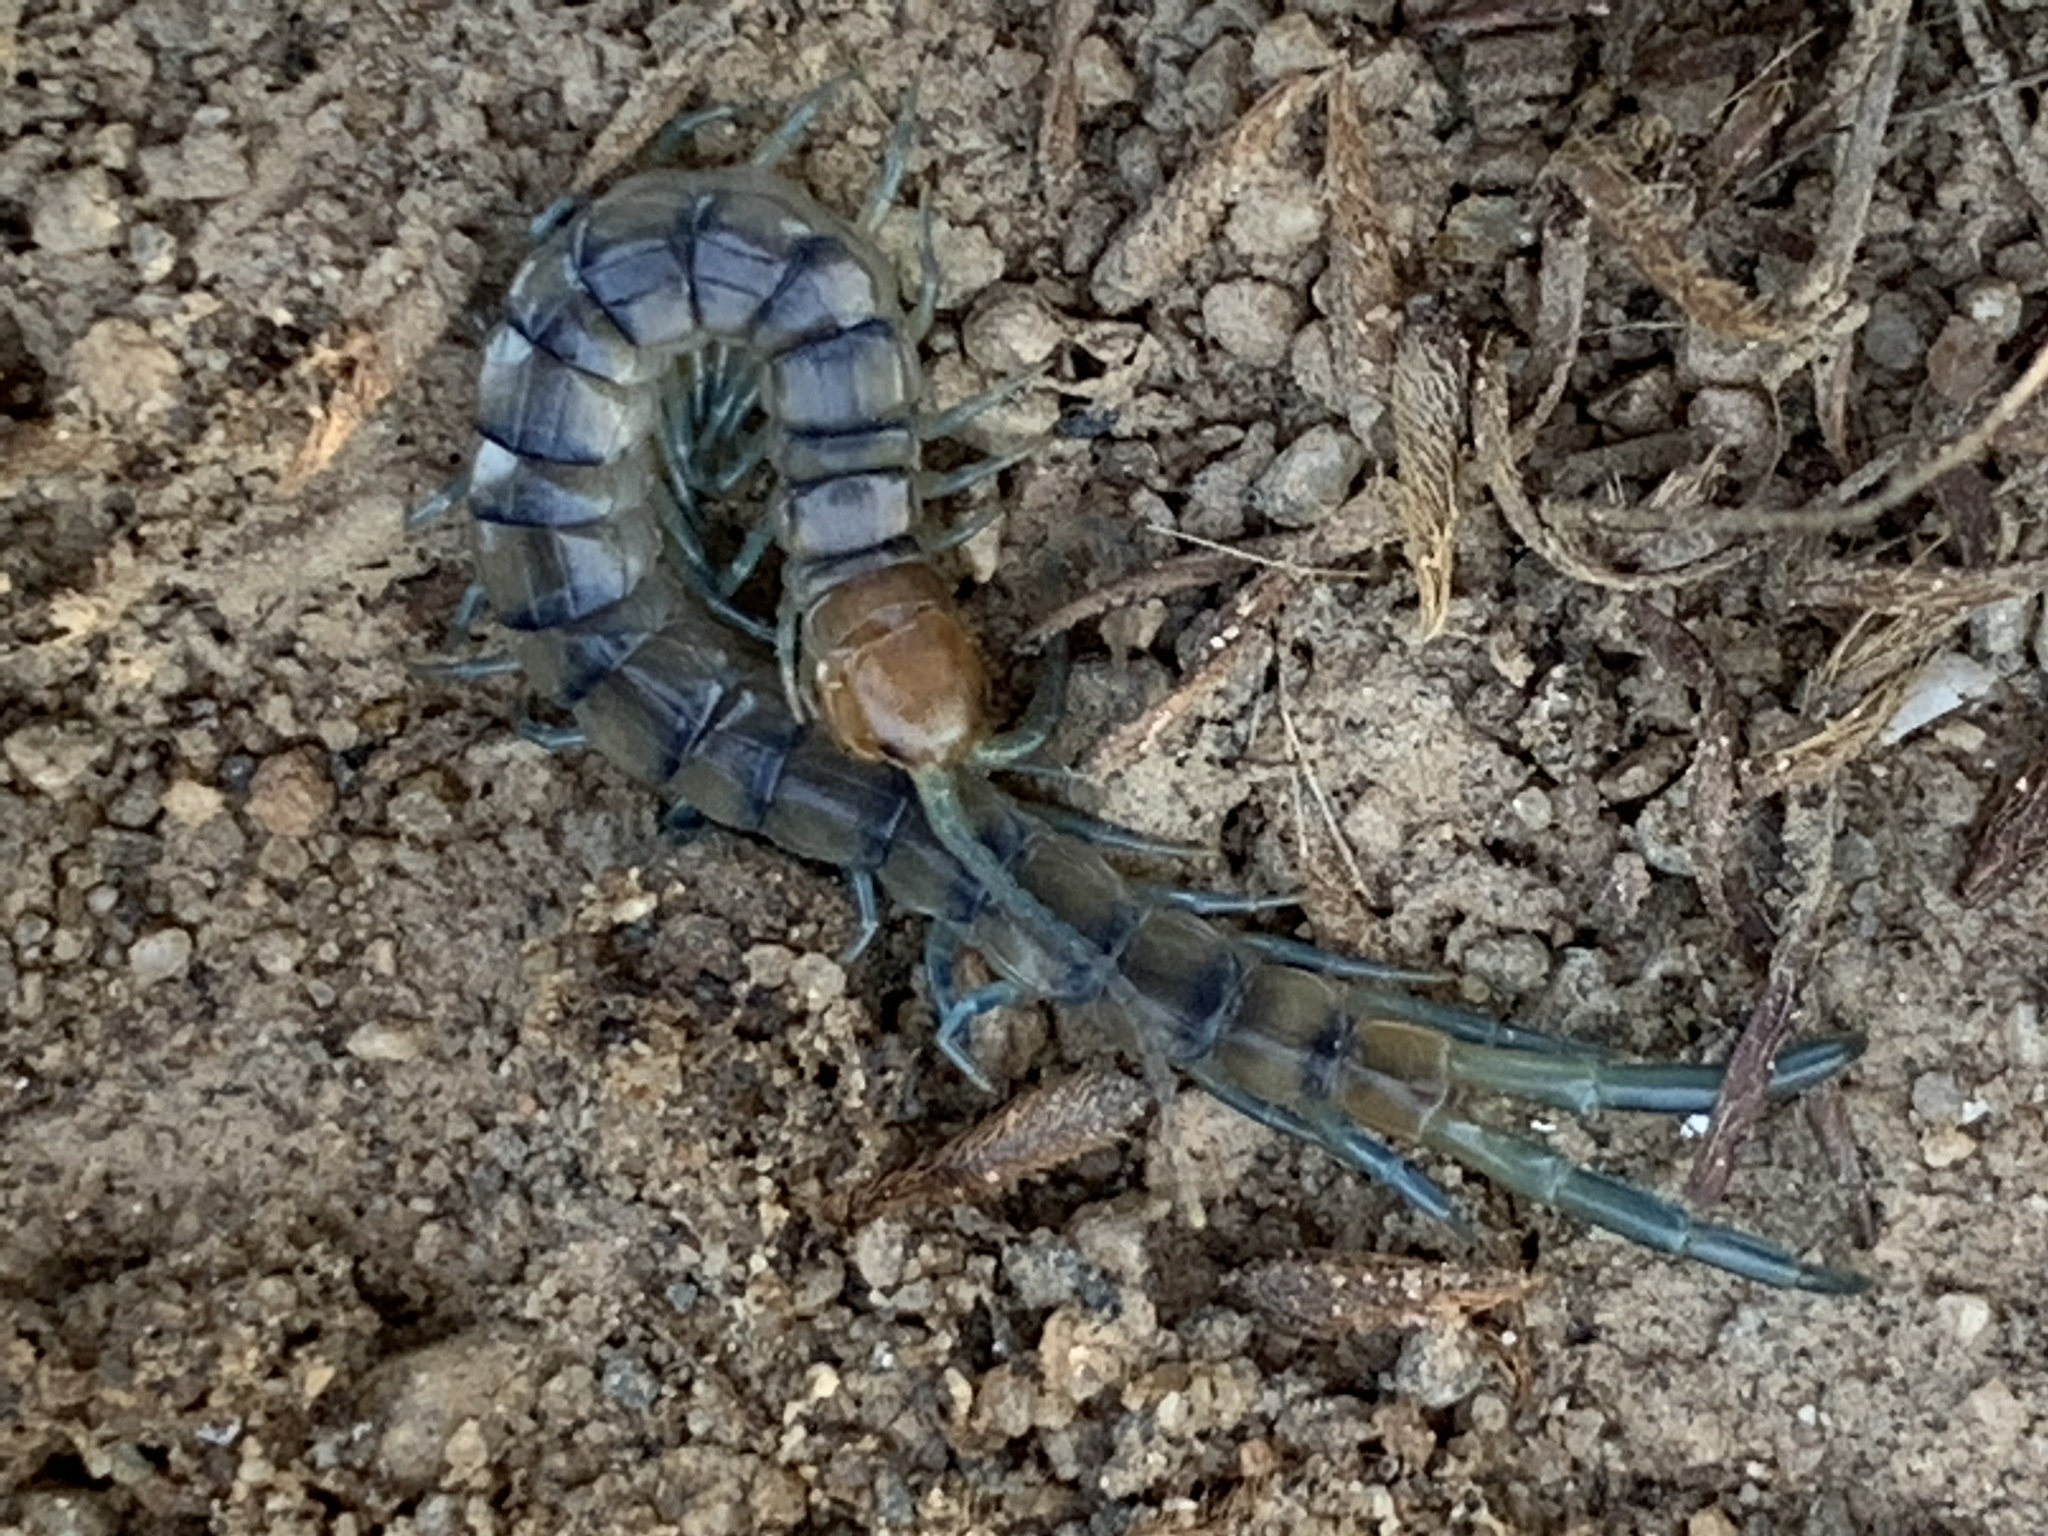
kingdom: Animalia
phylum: Arthropoda
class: Chilopoda
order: Scolopendromorpha
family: Scolopendridae
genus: Scolopendra
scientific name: Scolopendra polymorpha
